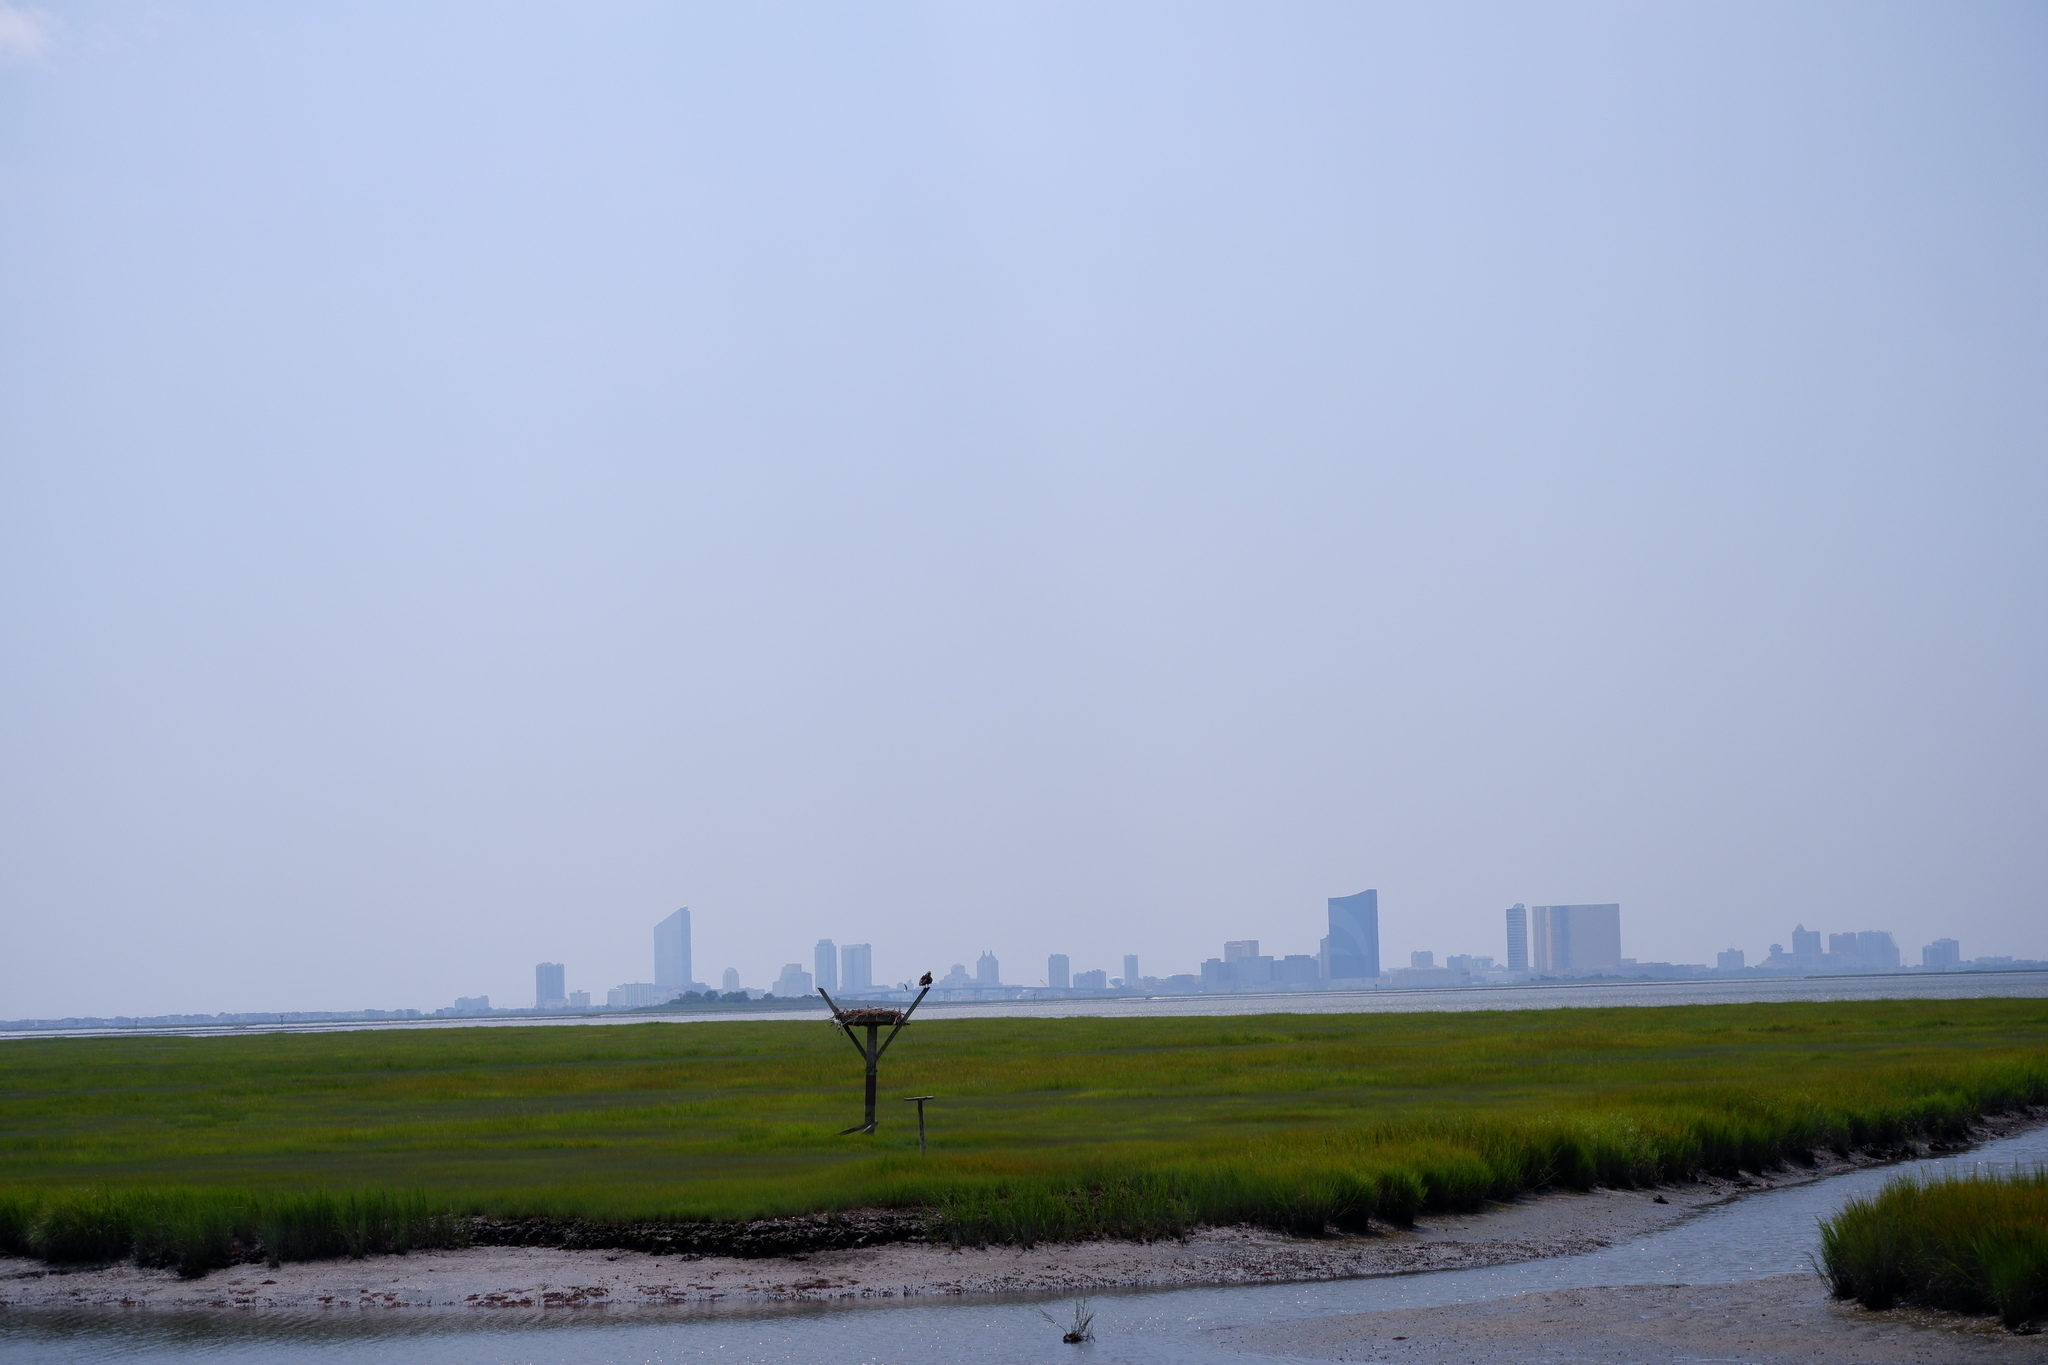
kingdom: Animalia
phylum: Chordata
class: Aves
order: Accipitriformes
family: Pandionidae
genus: Pandion
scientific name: Pandion haliaetus
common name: Osprey
